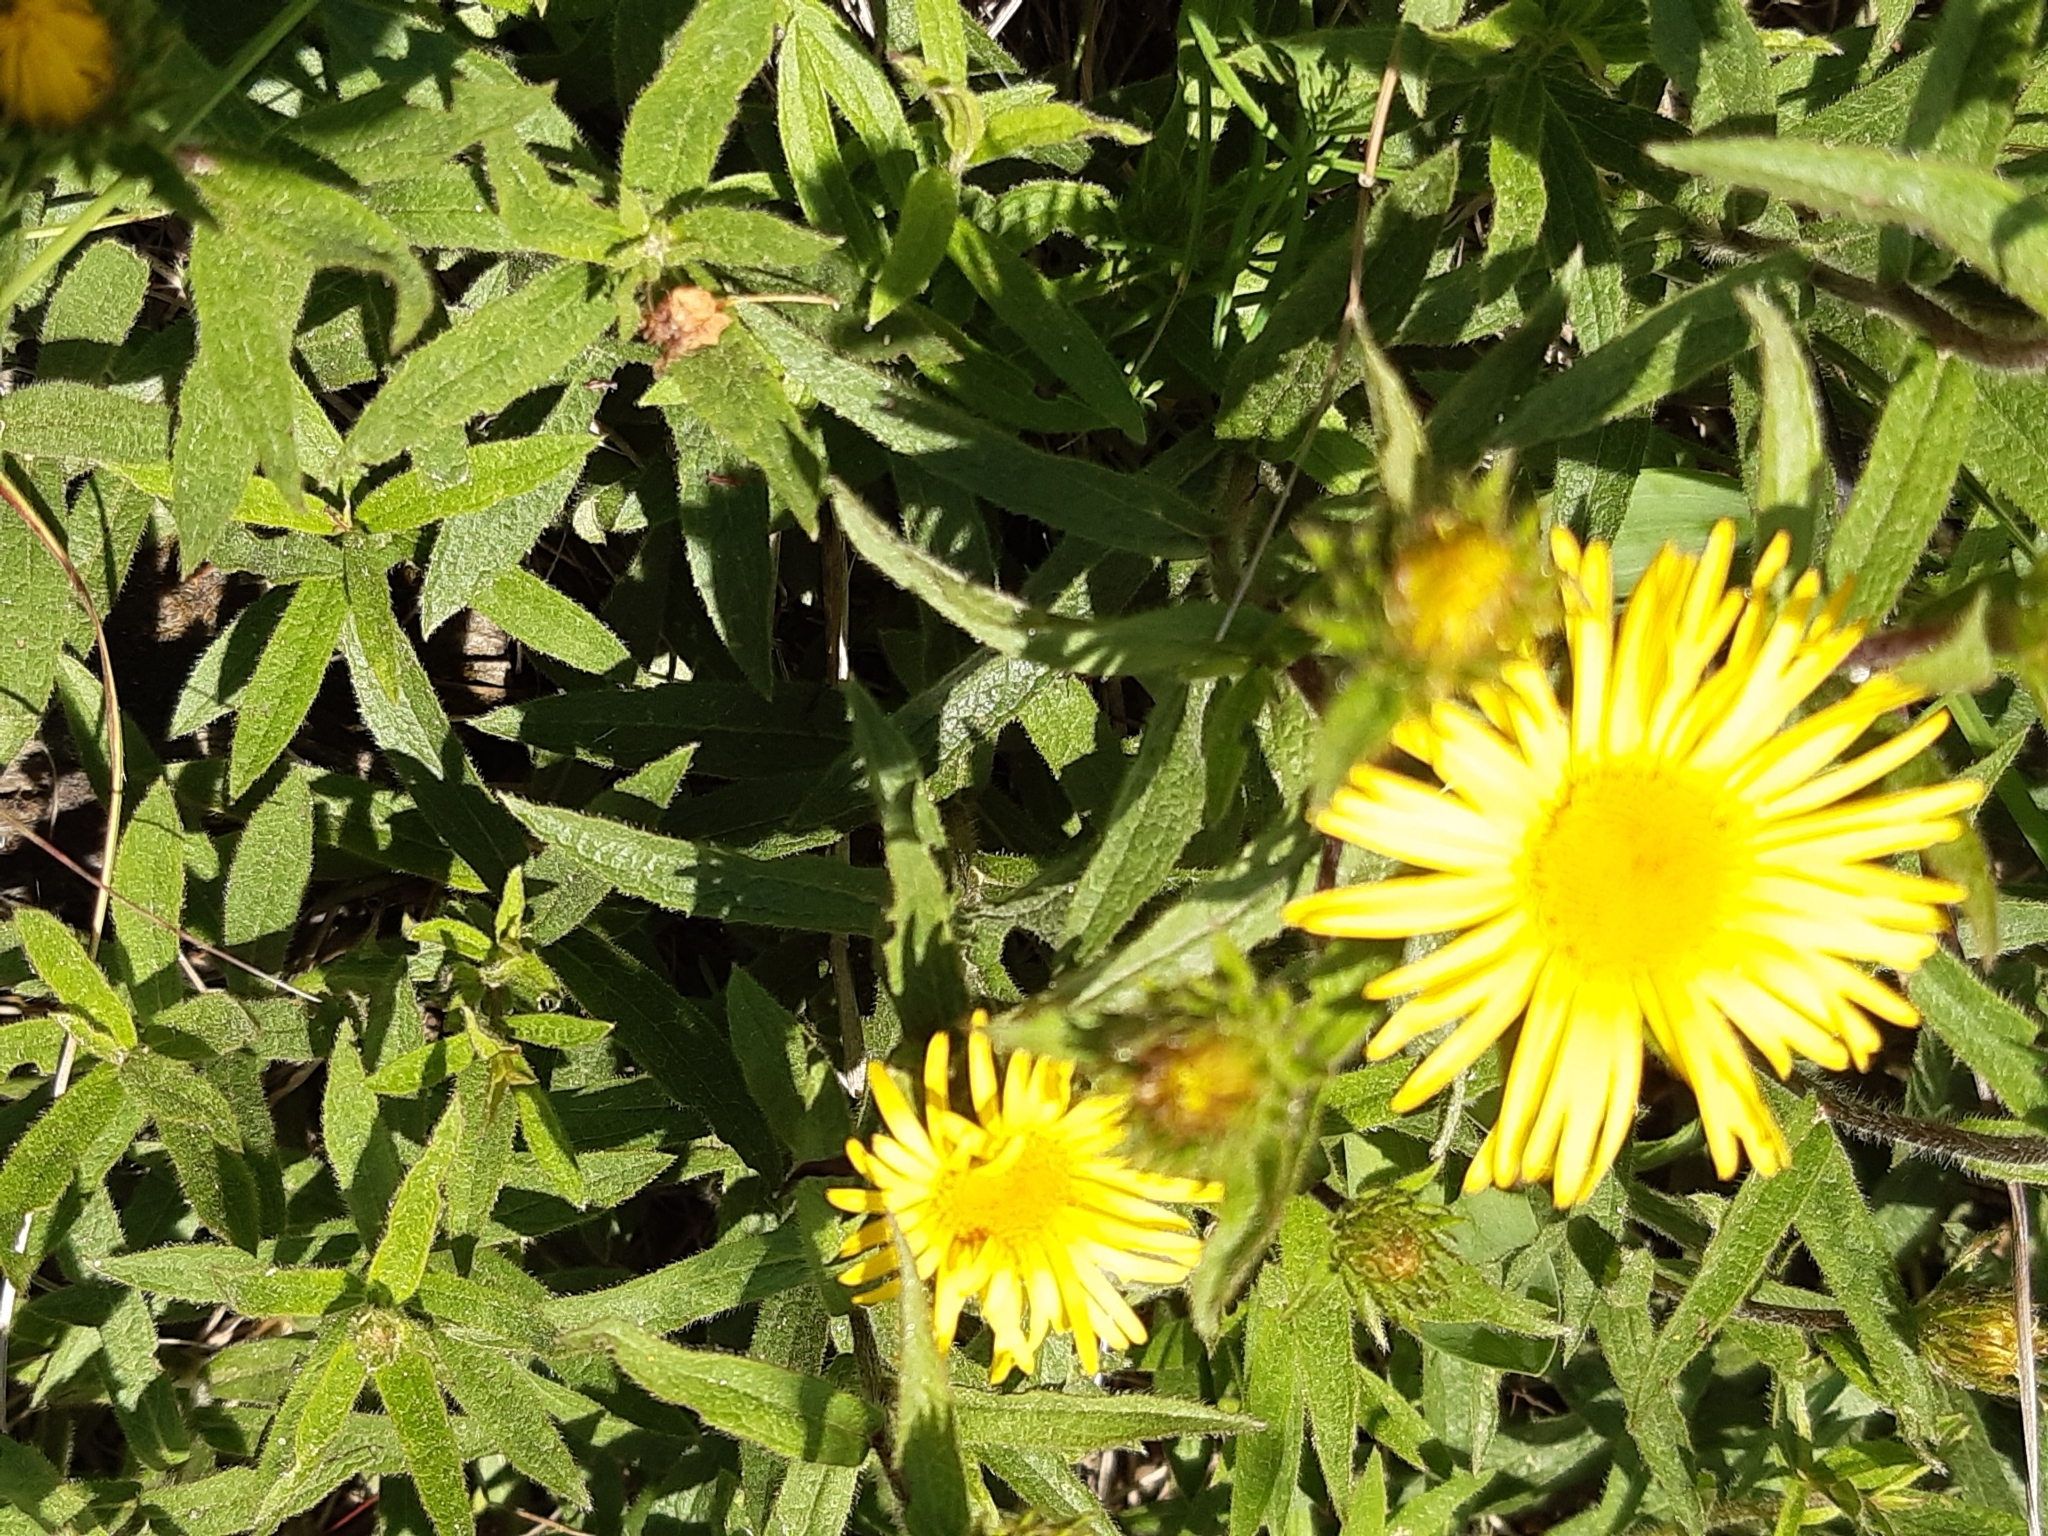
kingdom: Plantae
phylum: Tracheophyta
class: Magnoliopsida
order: Asterales
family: Asteraceae
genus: Pentanema
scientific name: Pentanema hirtum
